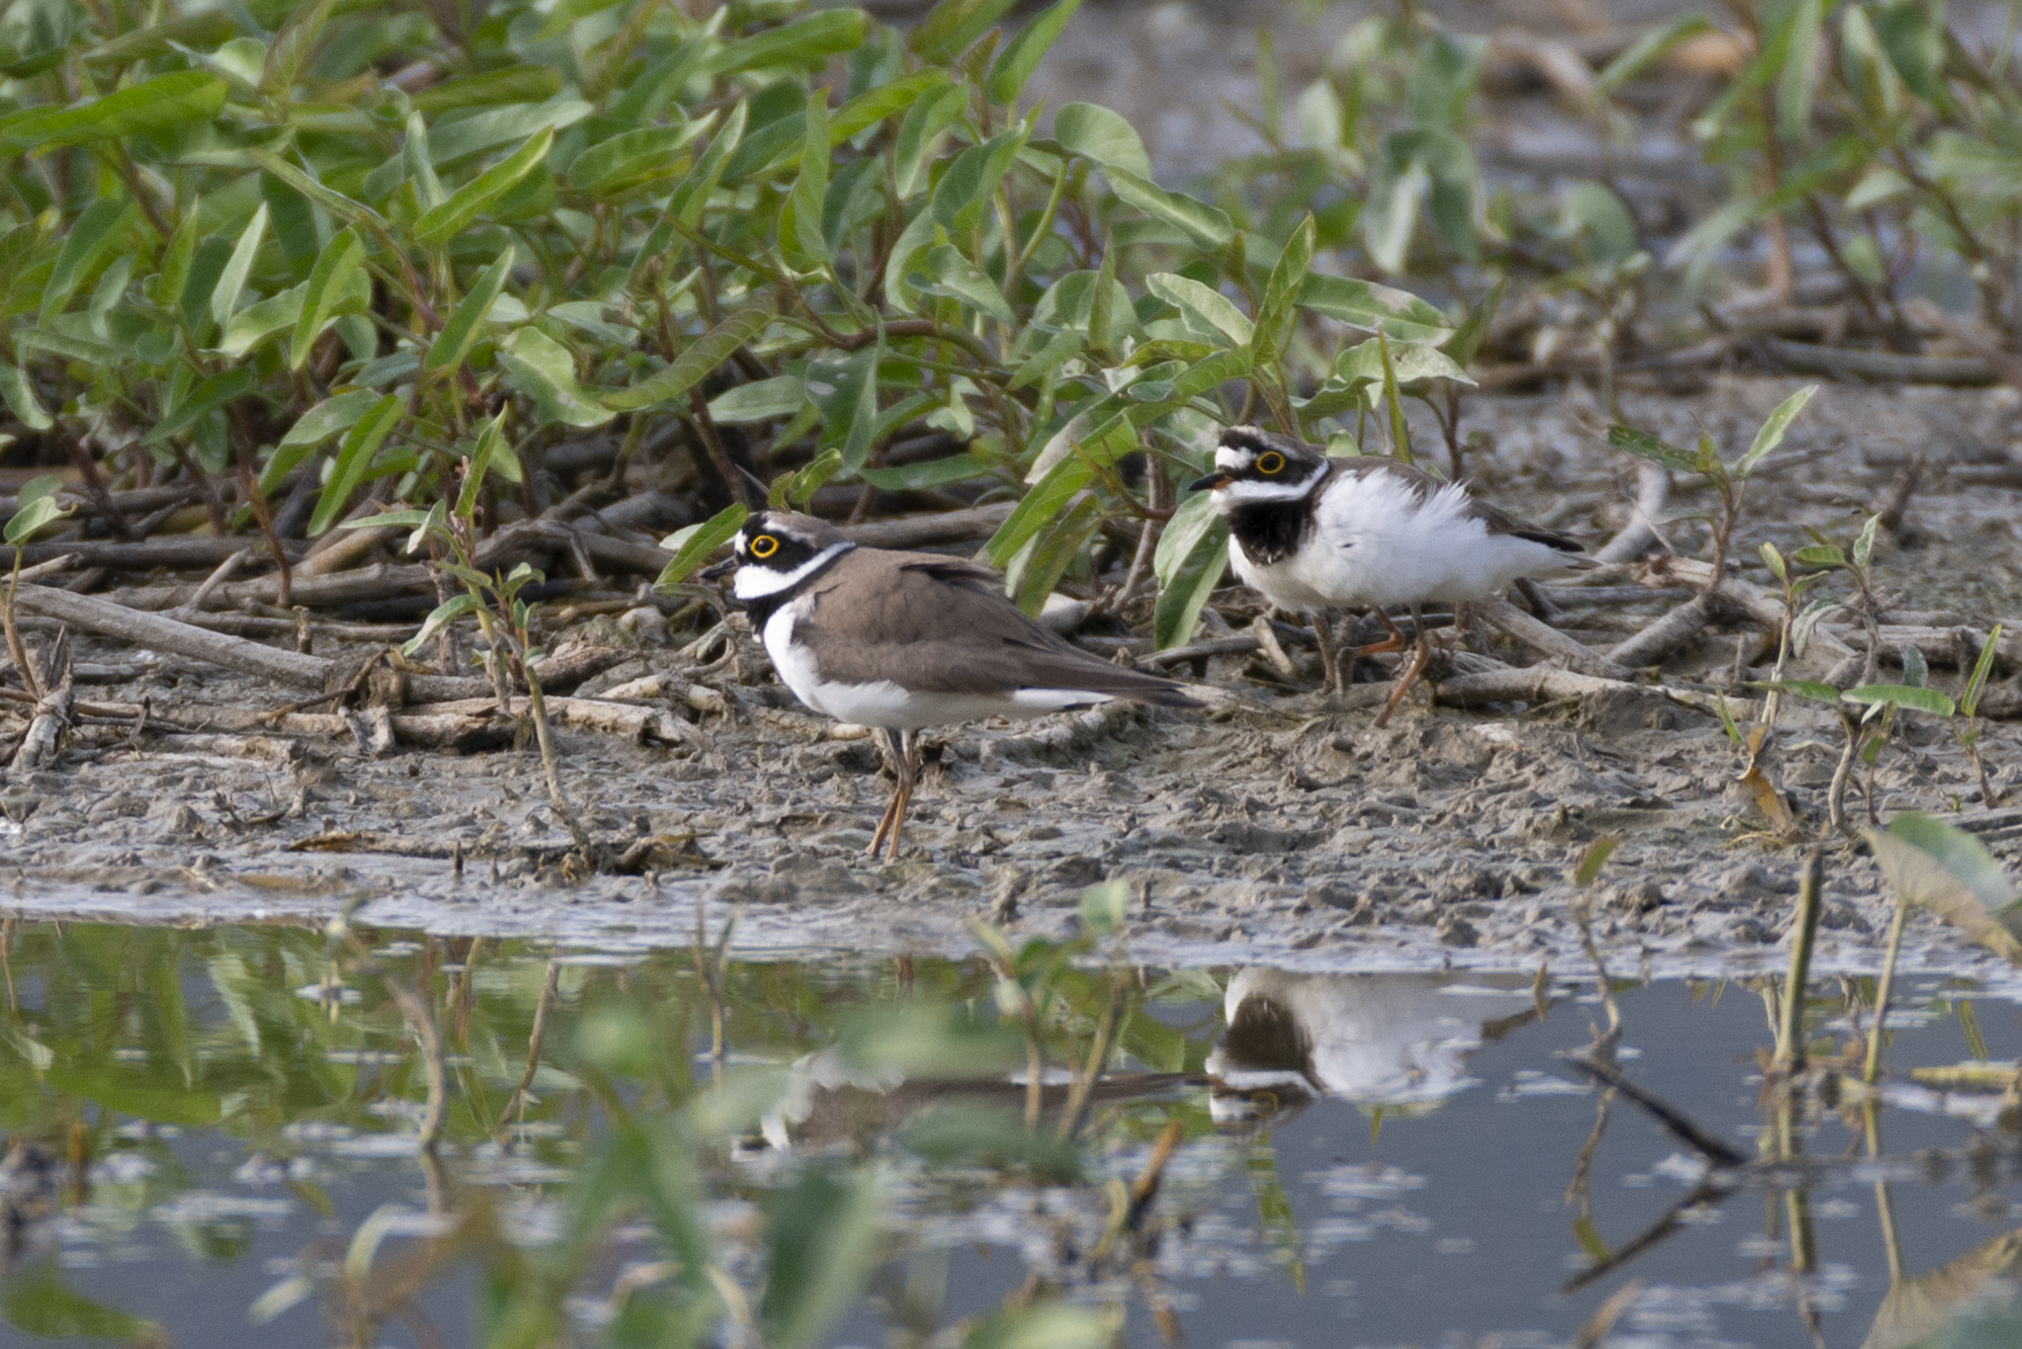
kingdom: Animalia
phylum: Chordata
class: Aves
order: Charadriiformes
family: Charadriidae
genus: Charadrius
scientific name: Charadrius dubius
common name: Little ringed plover
